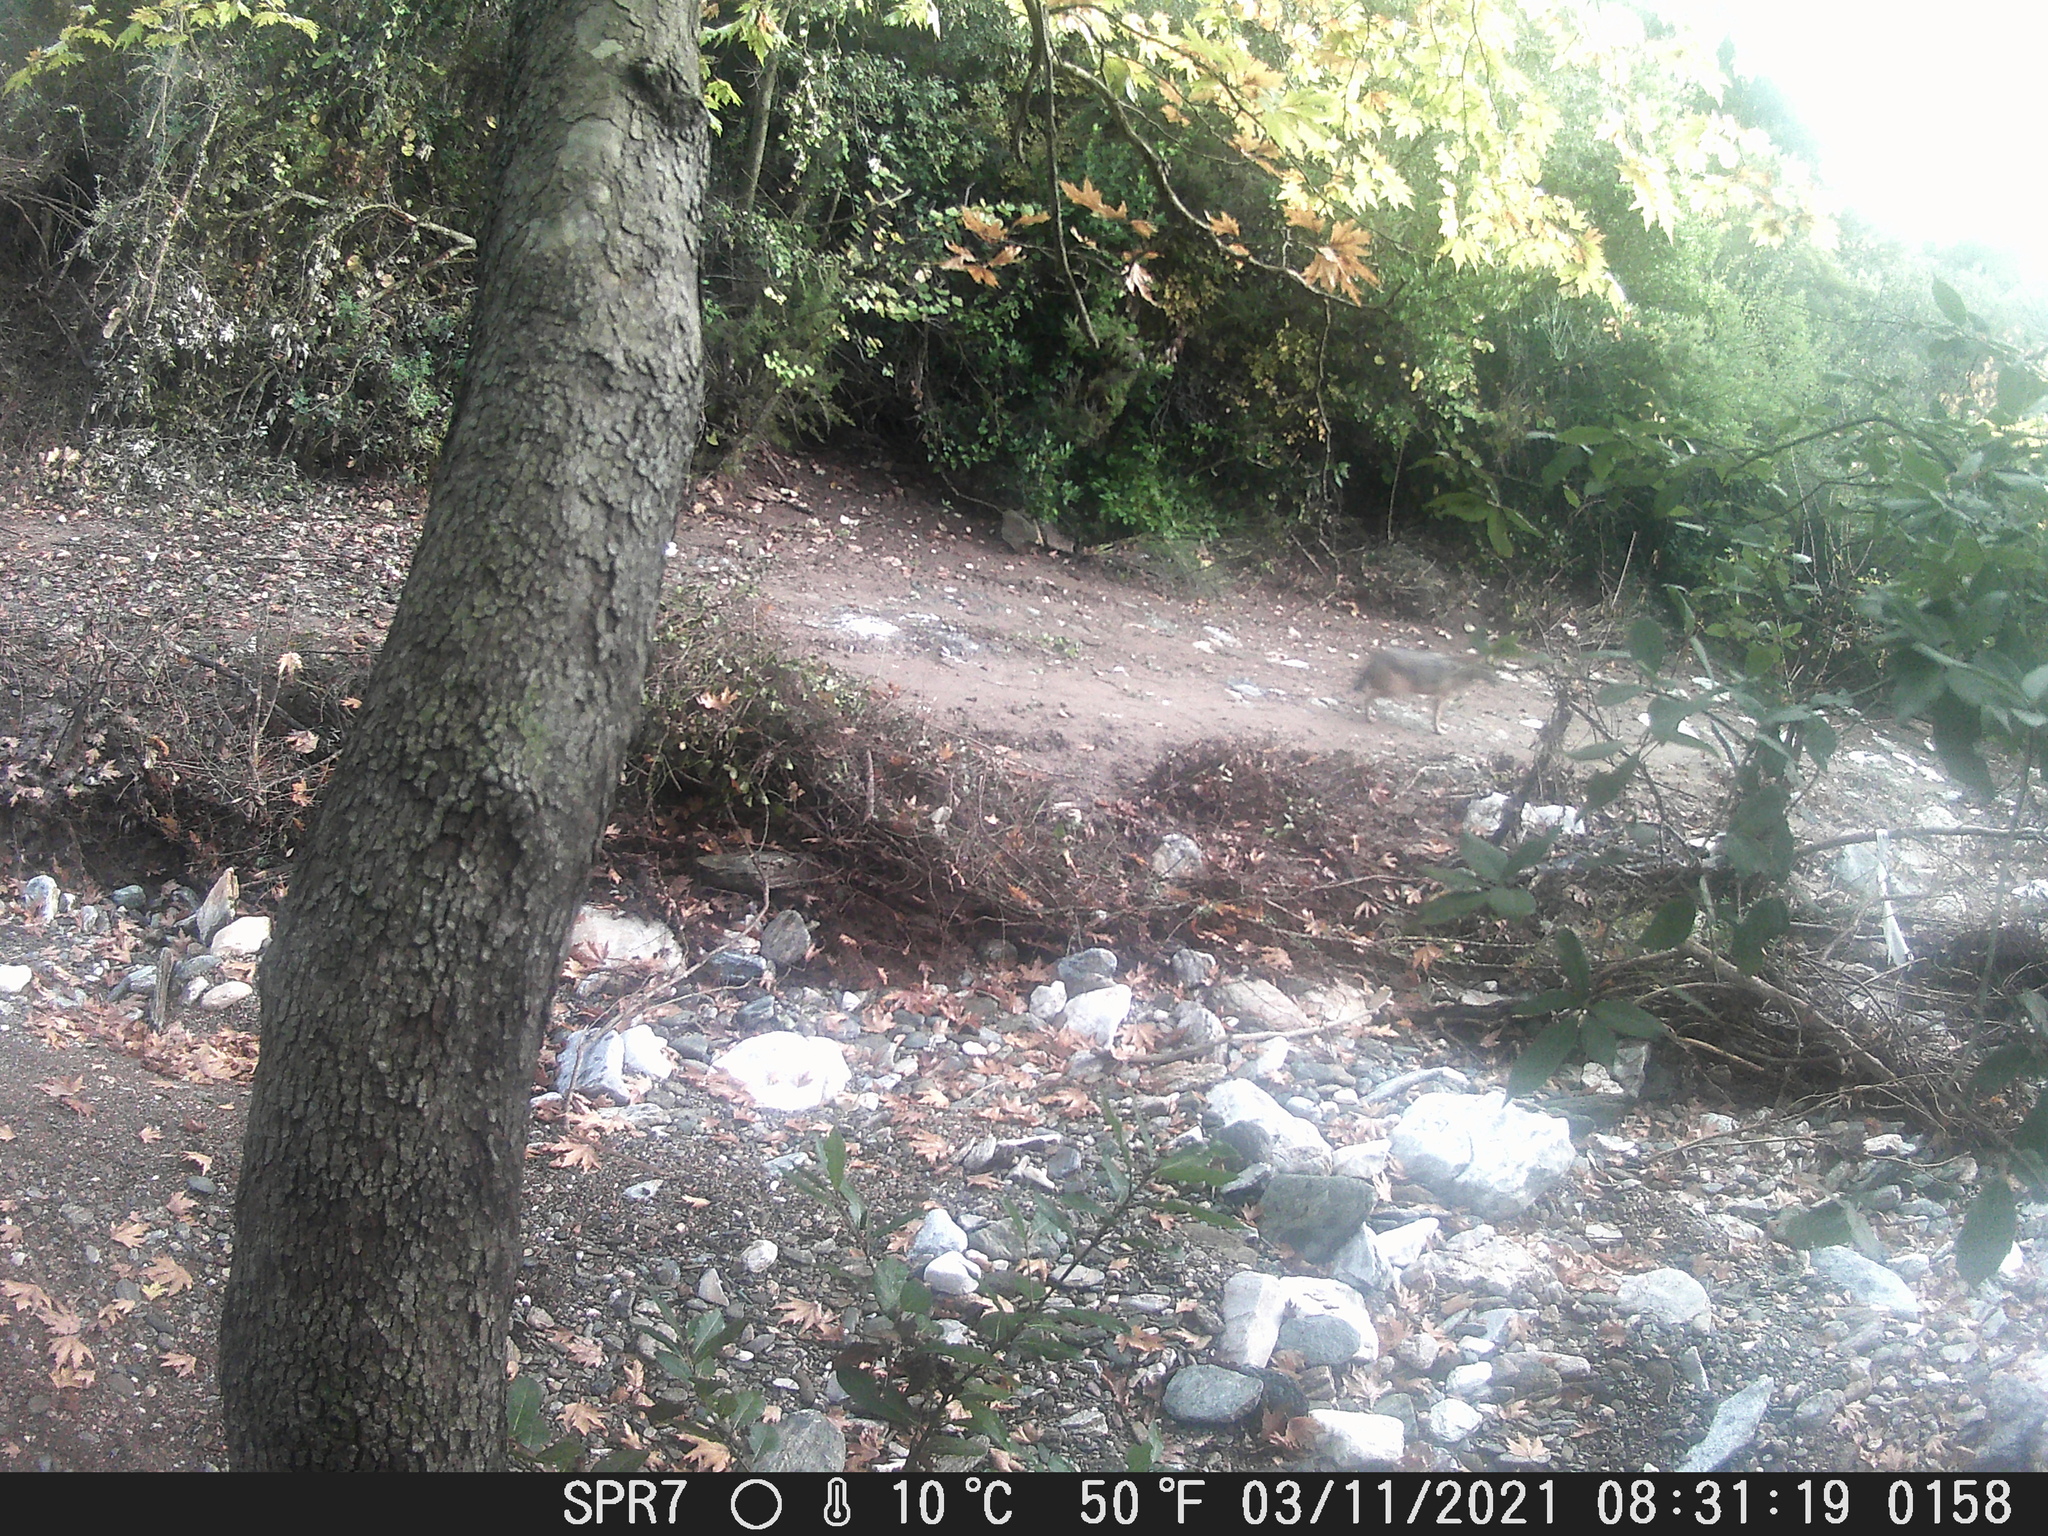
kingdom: Animalia
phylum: Chordata
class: Mammalia
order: Carnivora
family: Canidae
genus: Canis
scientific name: Canis aureus
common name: Golden jackal
